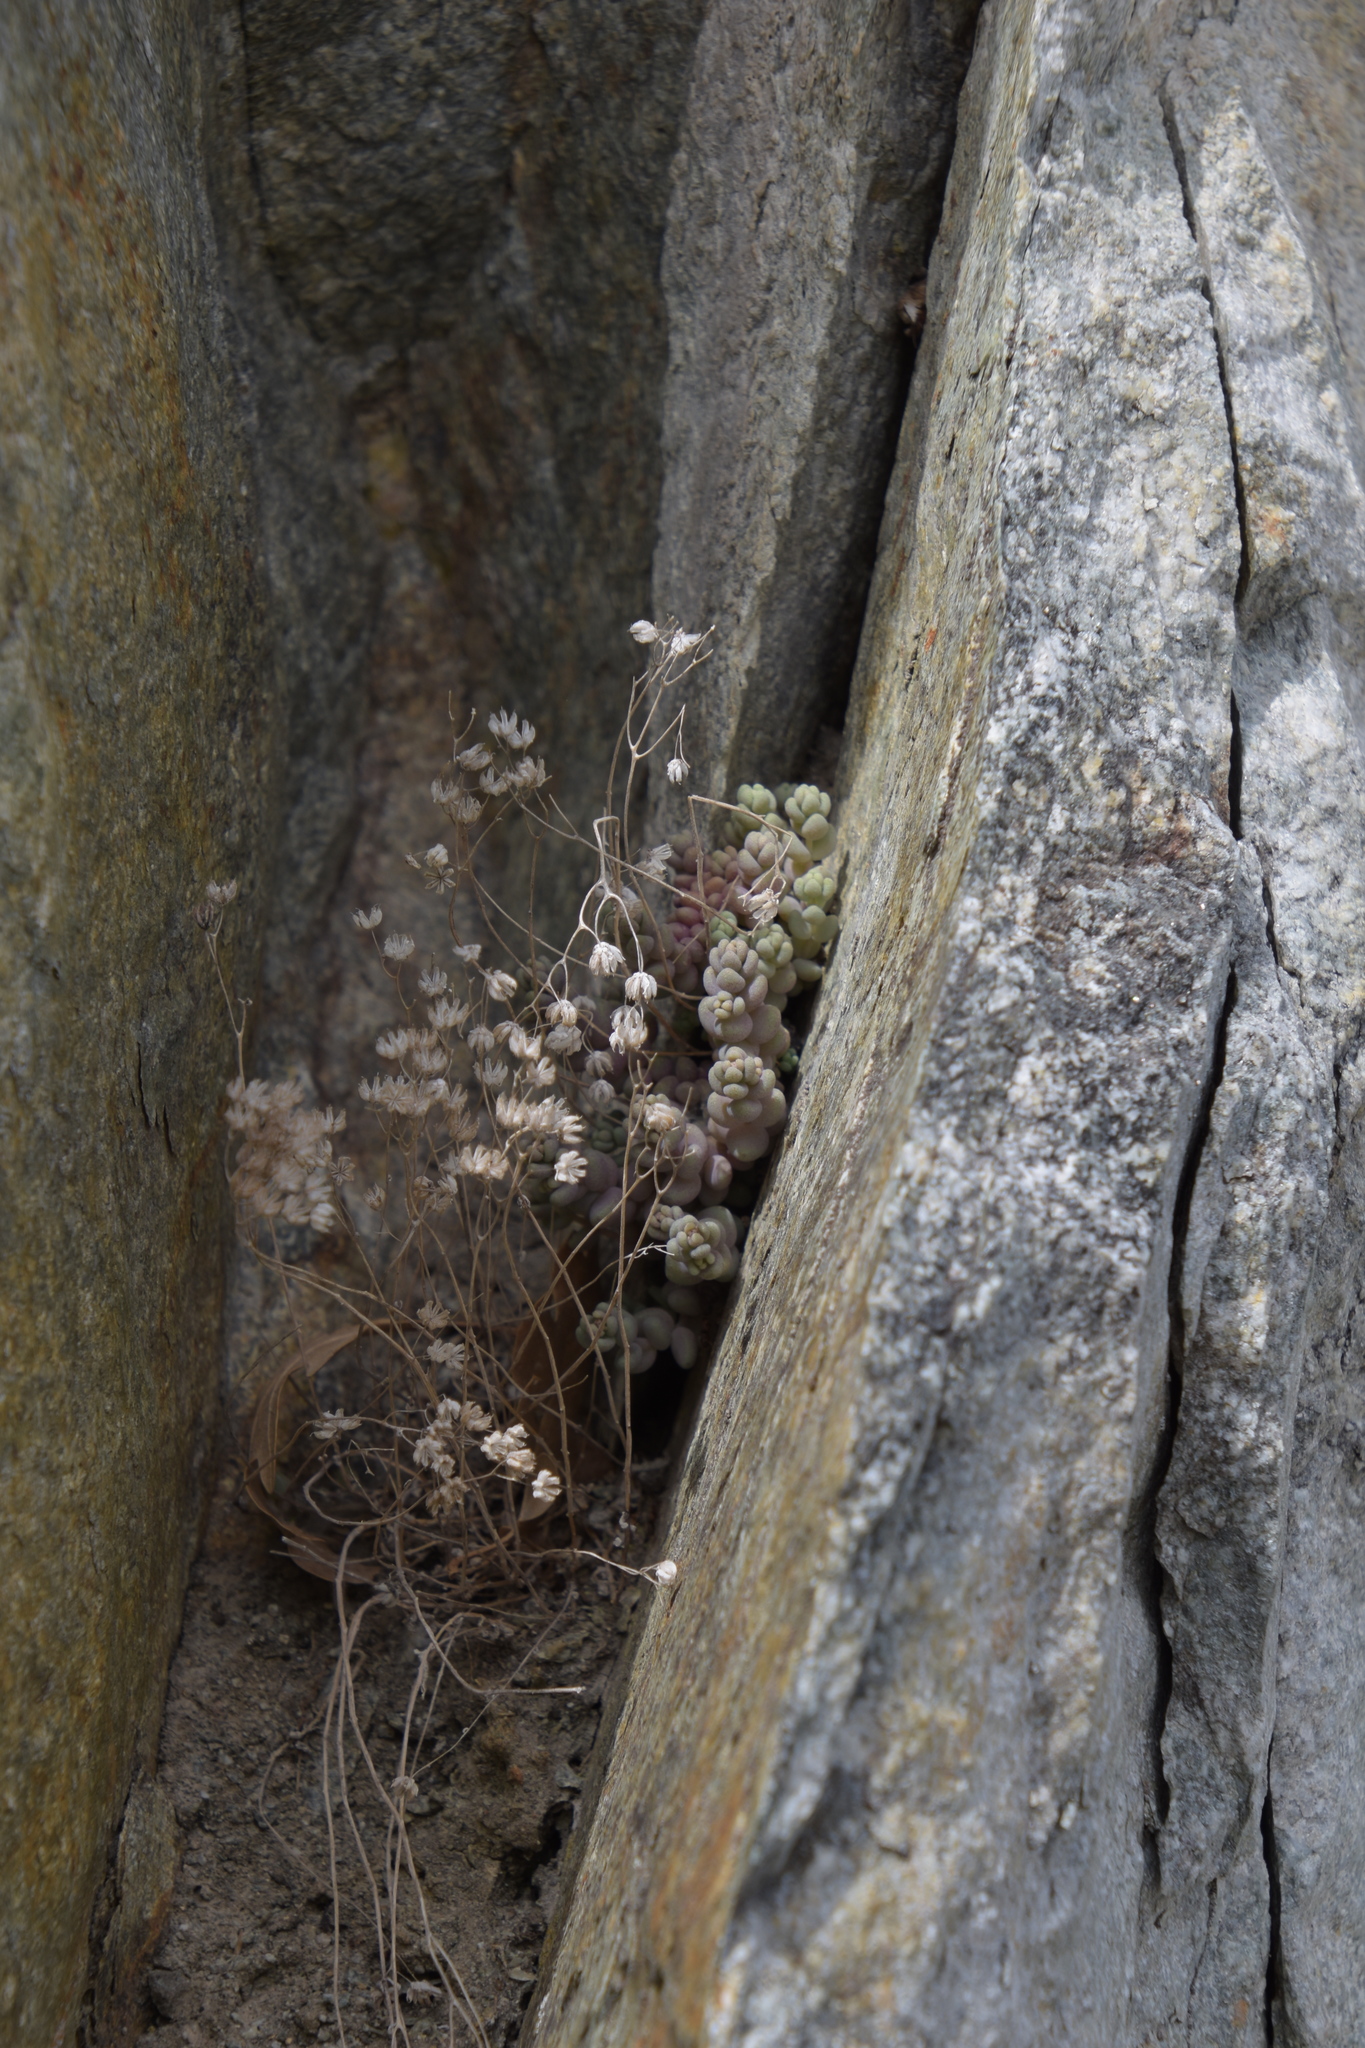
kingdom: Plantae
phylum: Tracheophyta
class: Magnoliopsida
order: Saxifragales
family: Crassulaceae
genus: Sedum
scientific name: Sedum dasyphyllum
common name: Thick-leaf stonecrop
